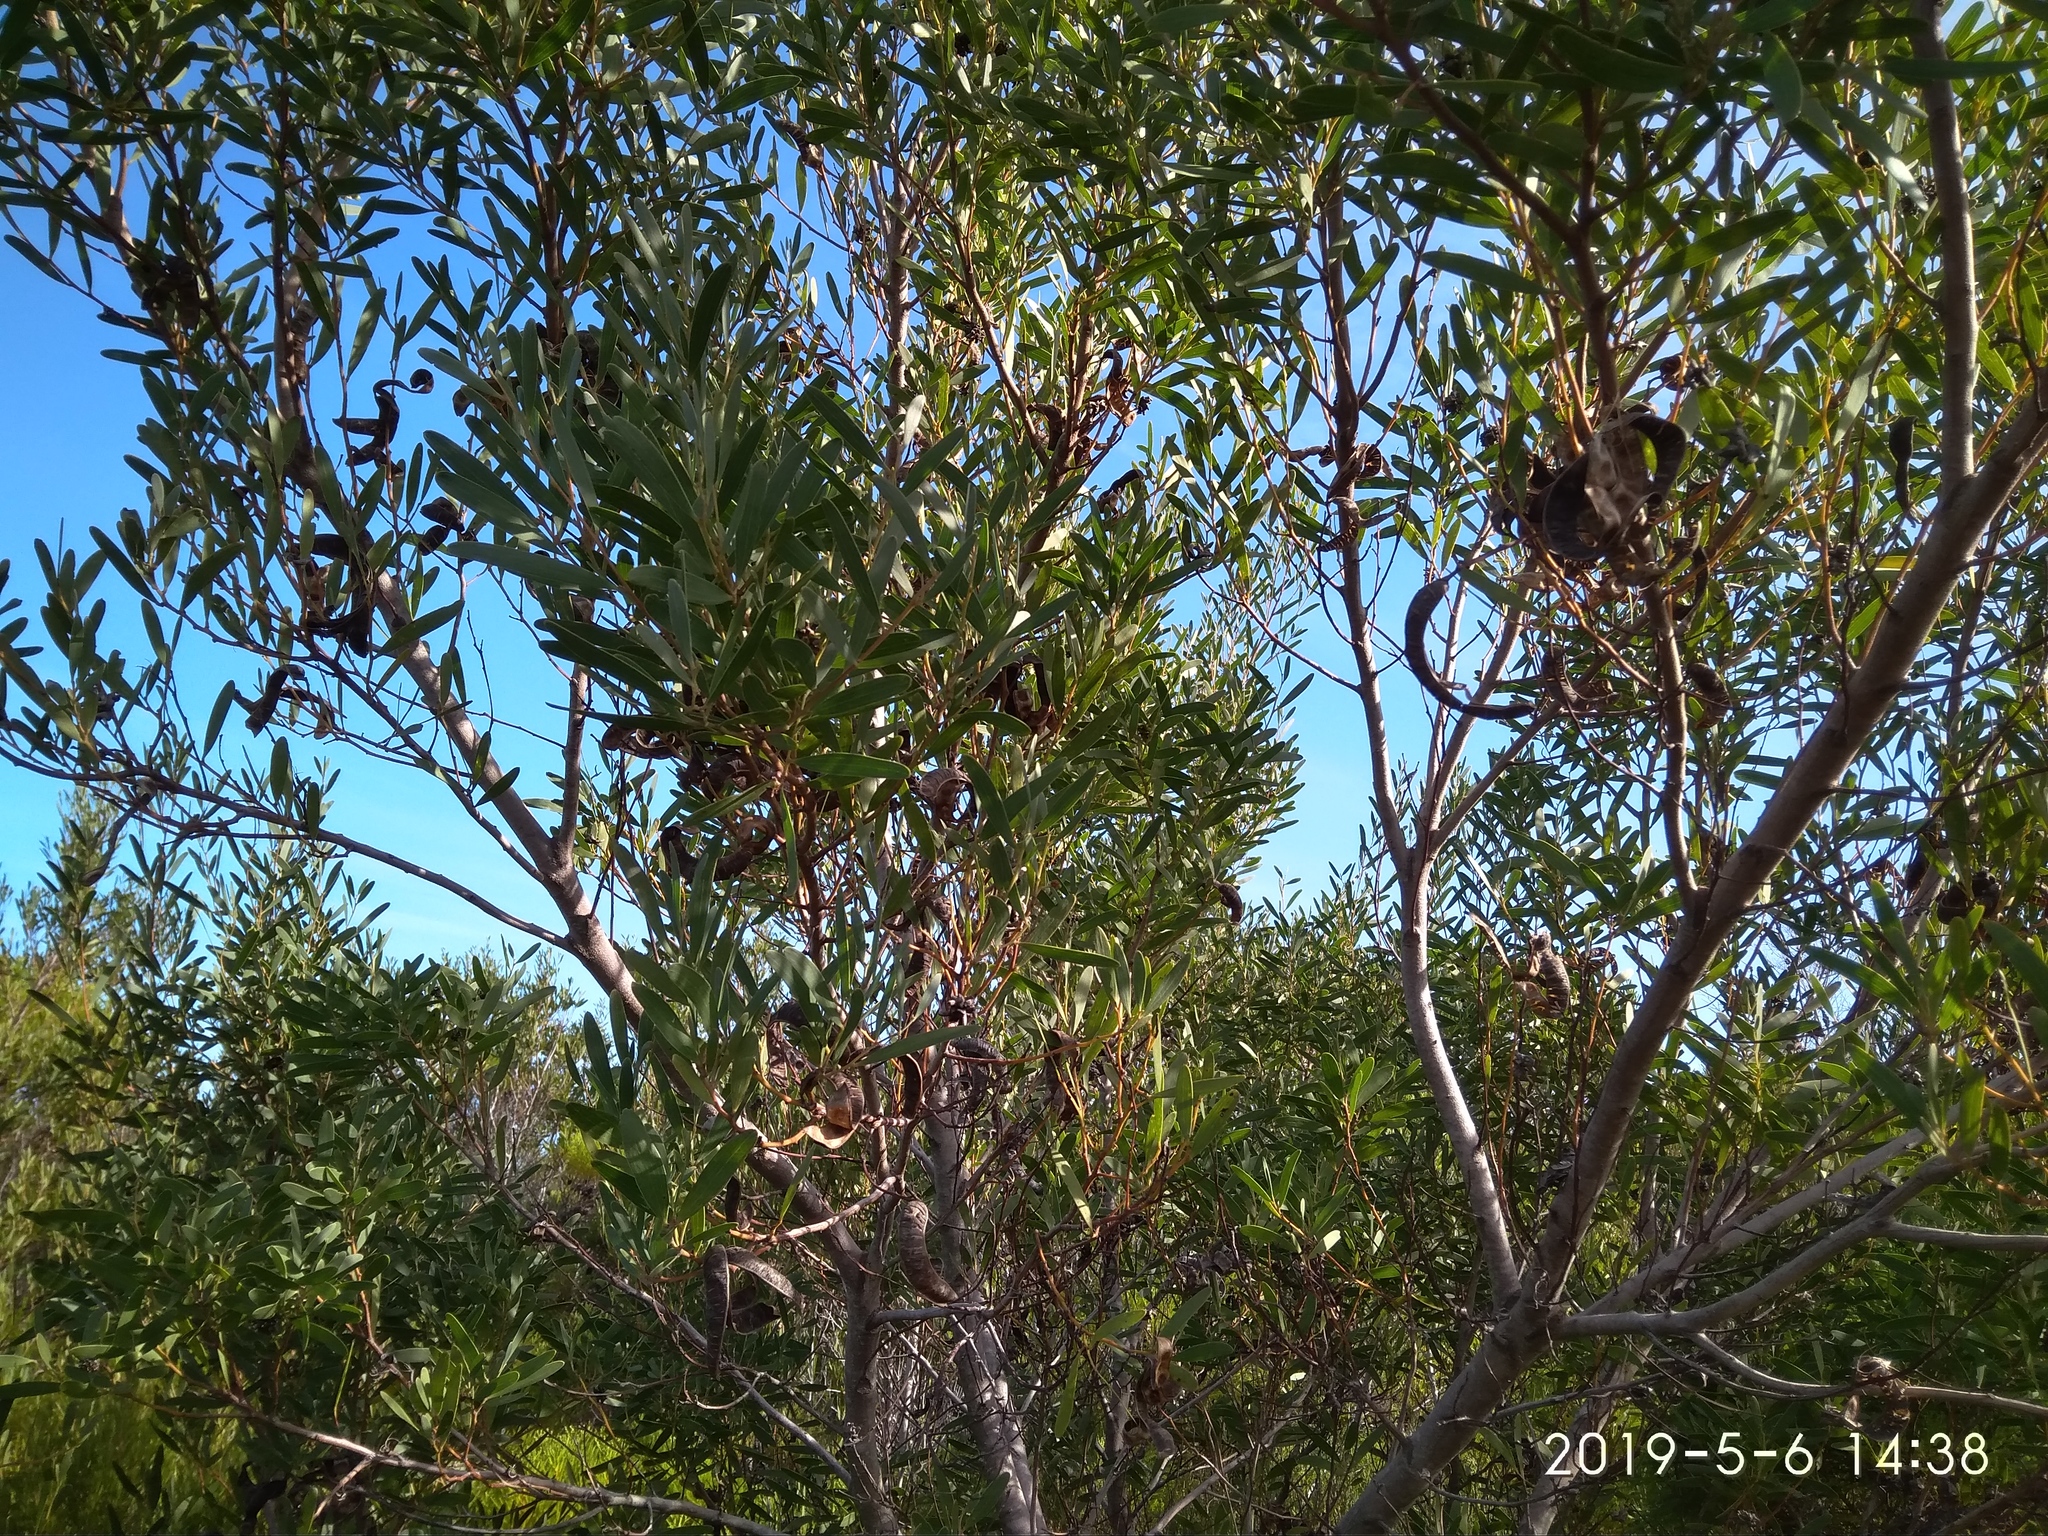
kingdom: Plantae
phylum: Tracheophyta
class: Magnoliopsida
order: Fabales
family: Fabaceae
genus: Acacia
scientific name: Acacia cyclops
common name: Coastal wattle
